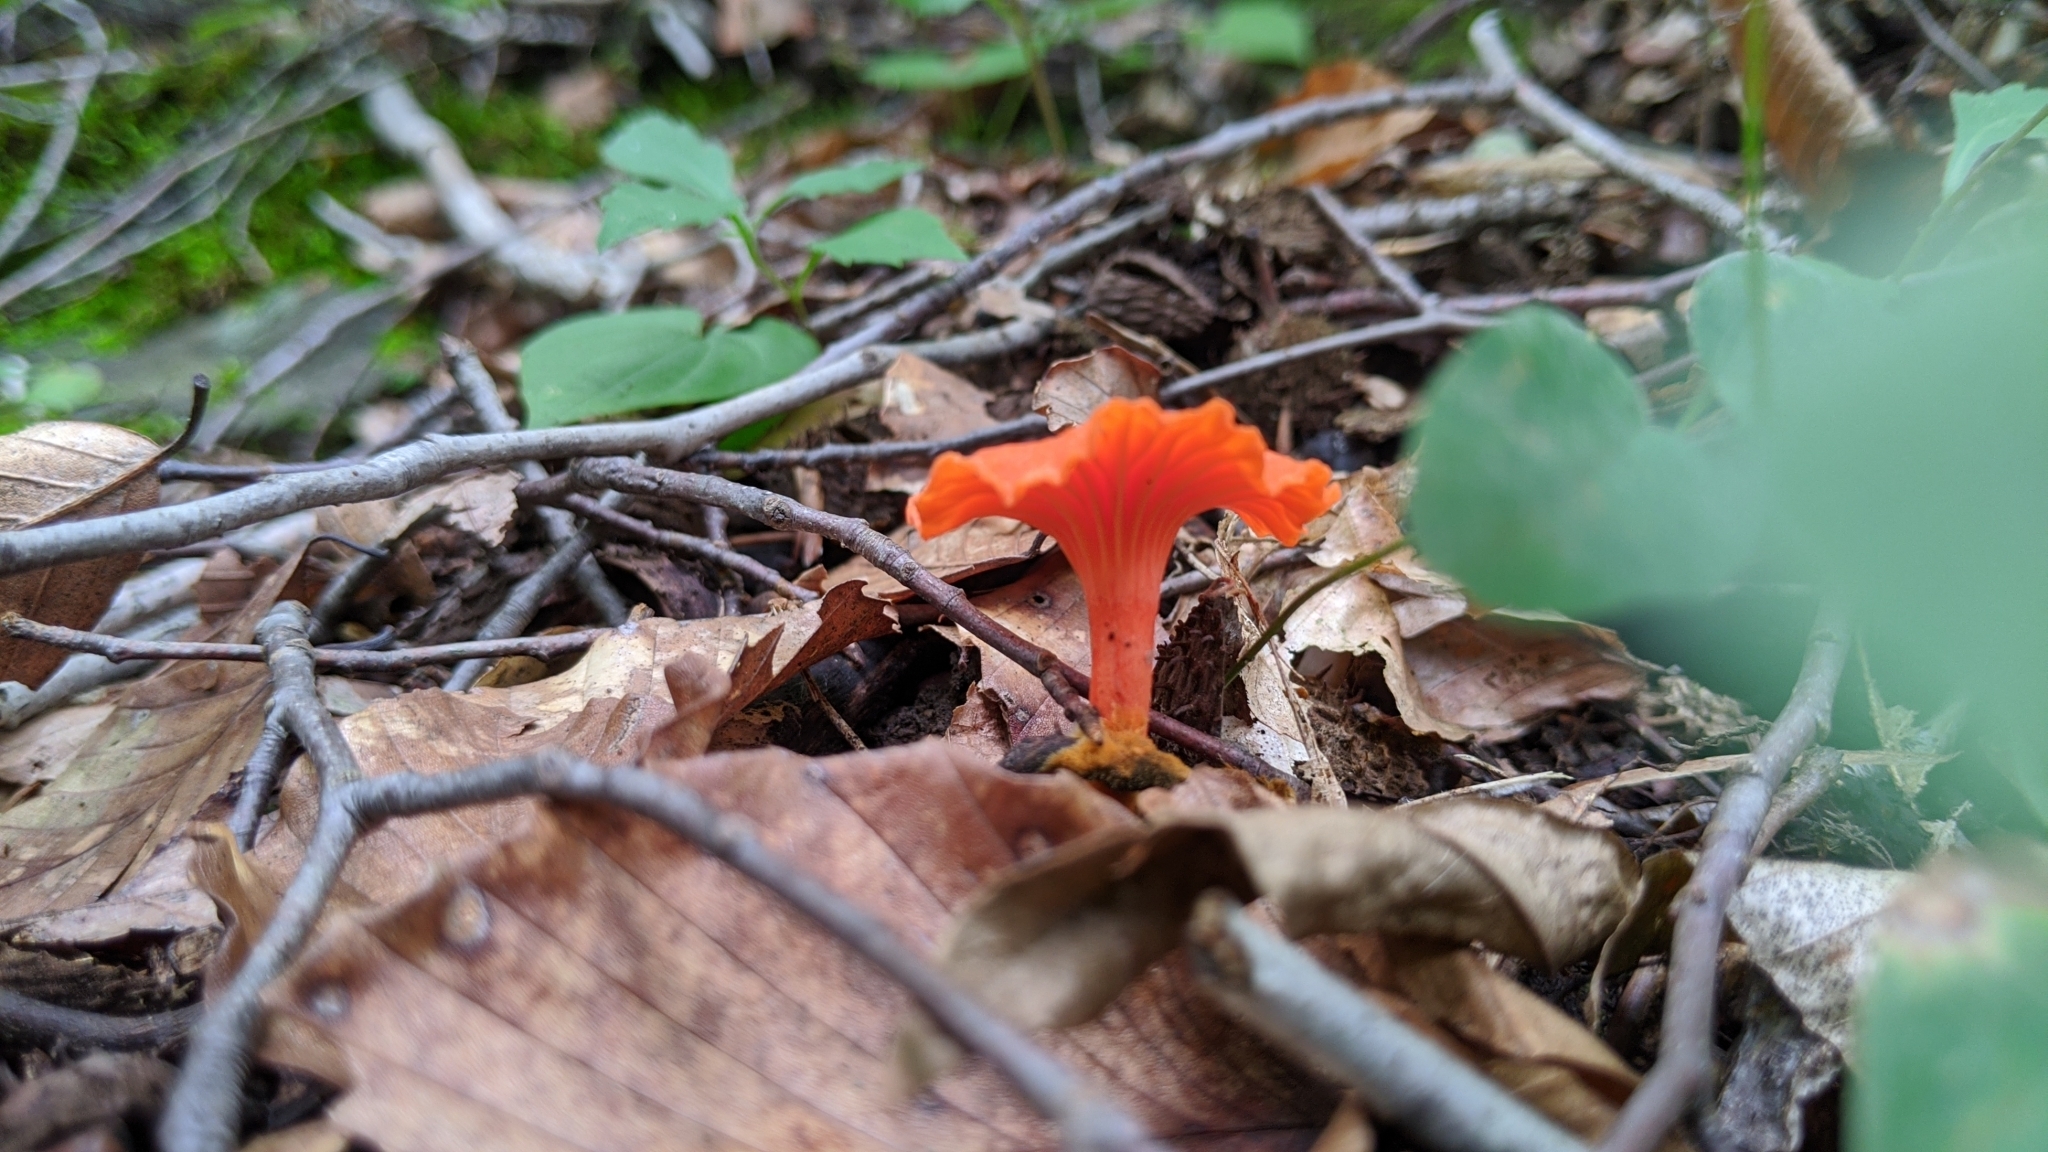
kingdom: Fungi
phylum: Basidiomycota
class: Agaricomycetes
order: Cantharellales
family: Hydnaceae
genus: Cantharellus
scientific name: Cantharellus cinnabarinus
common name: Cinnabar chanterelle
